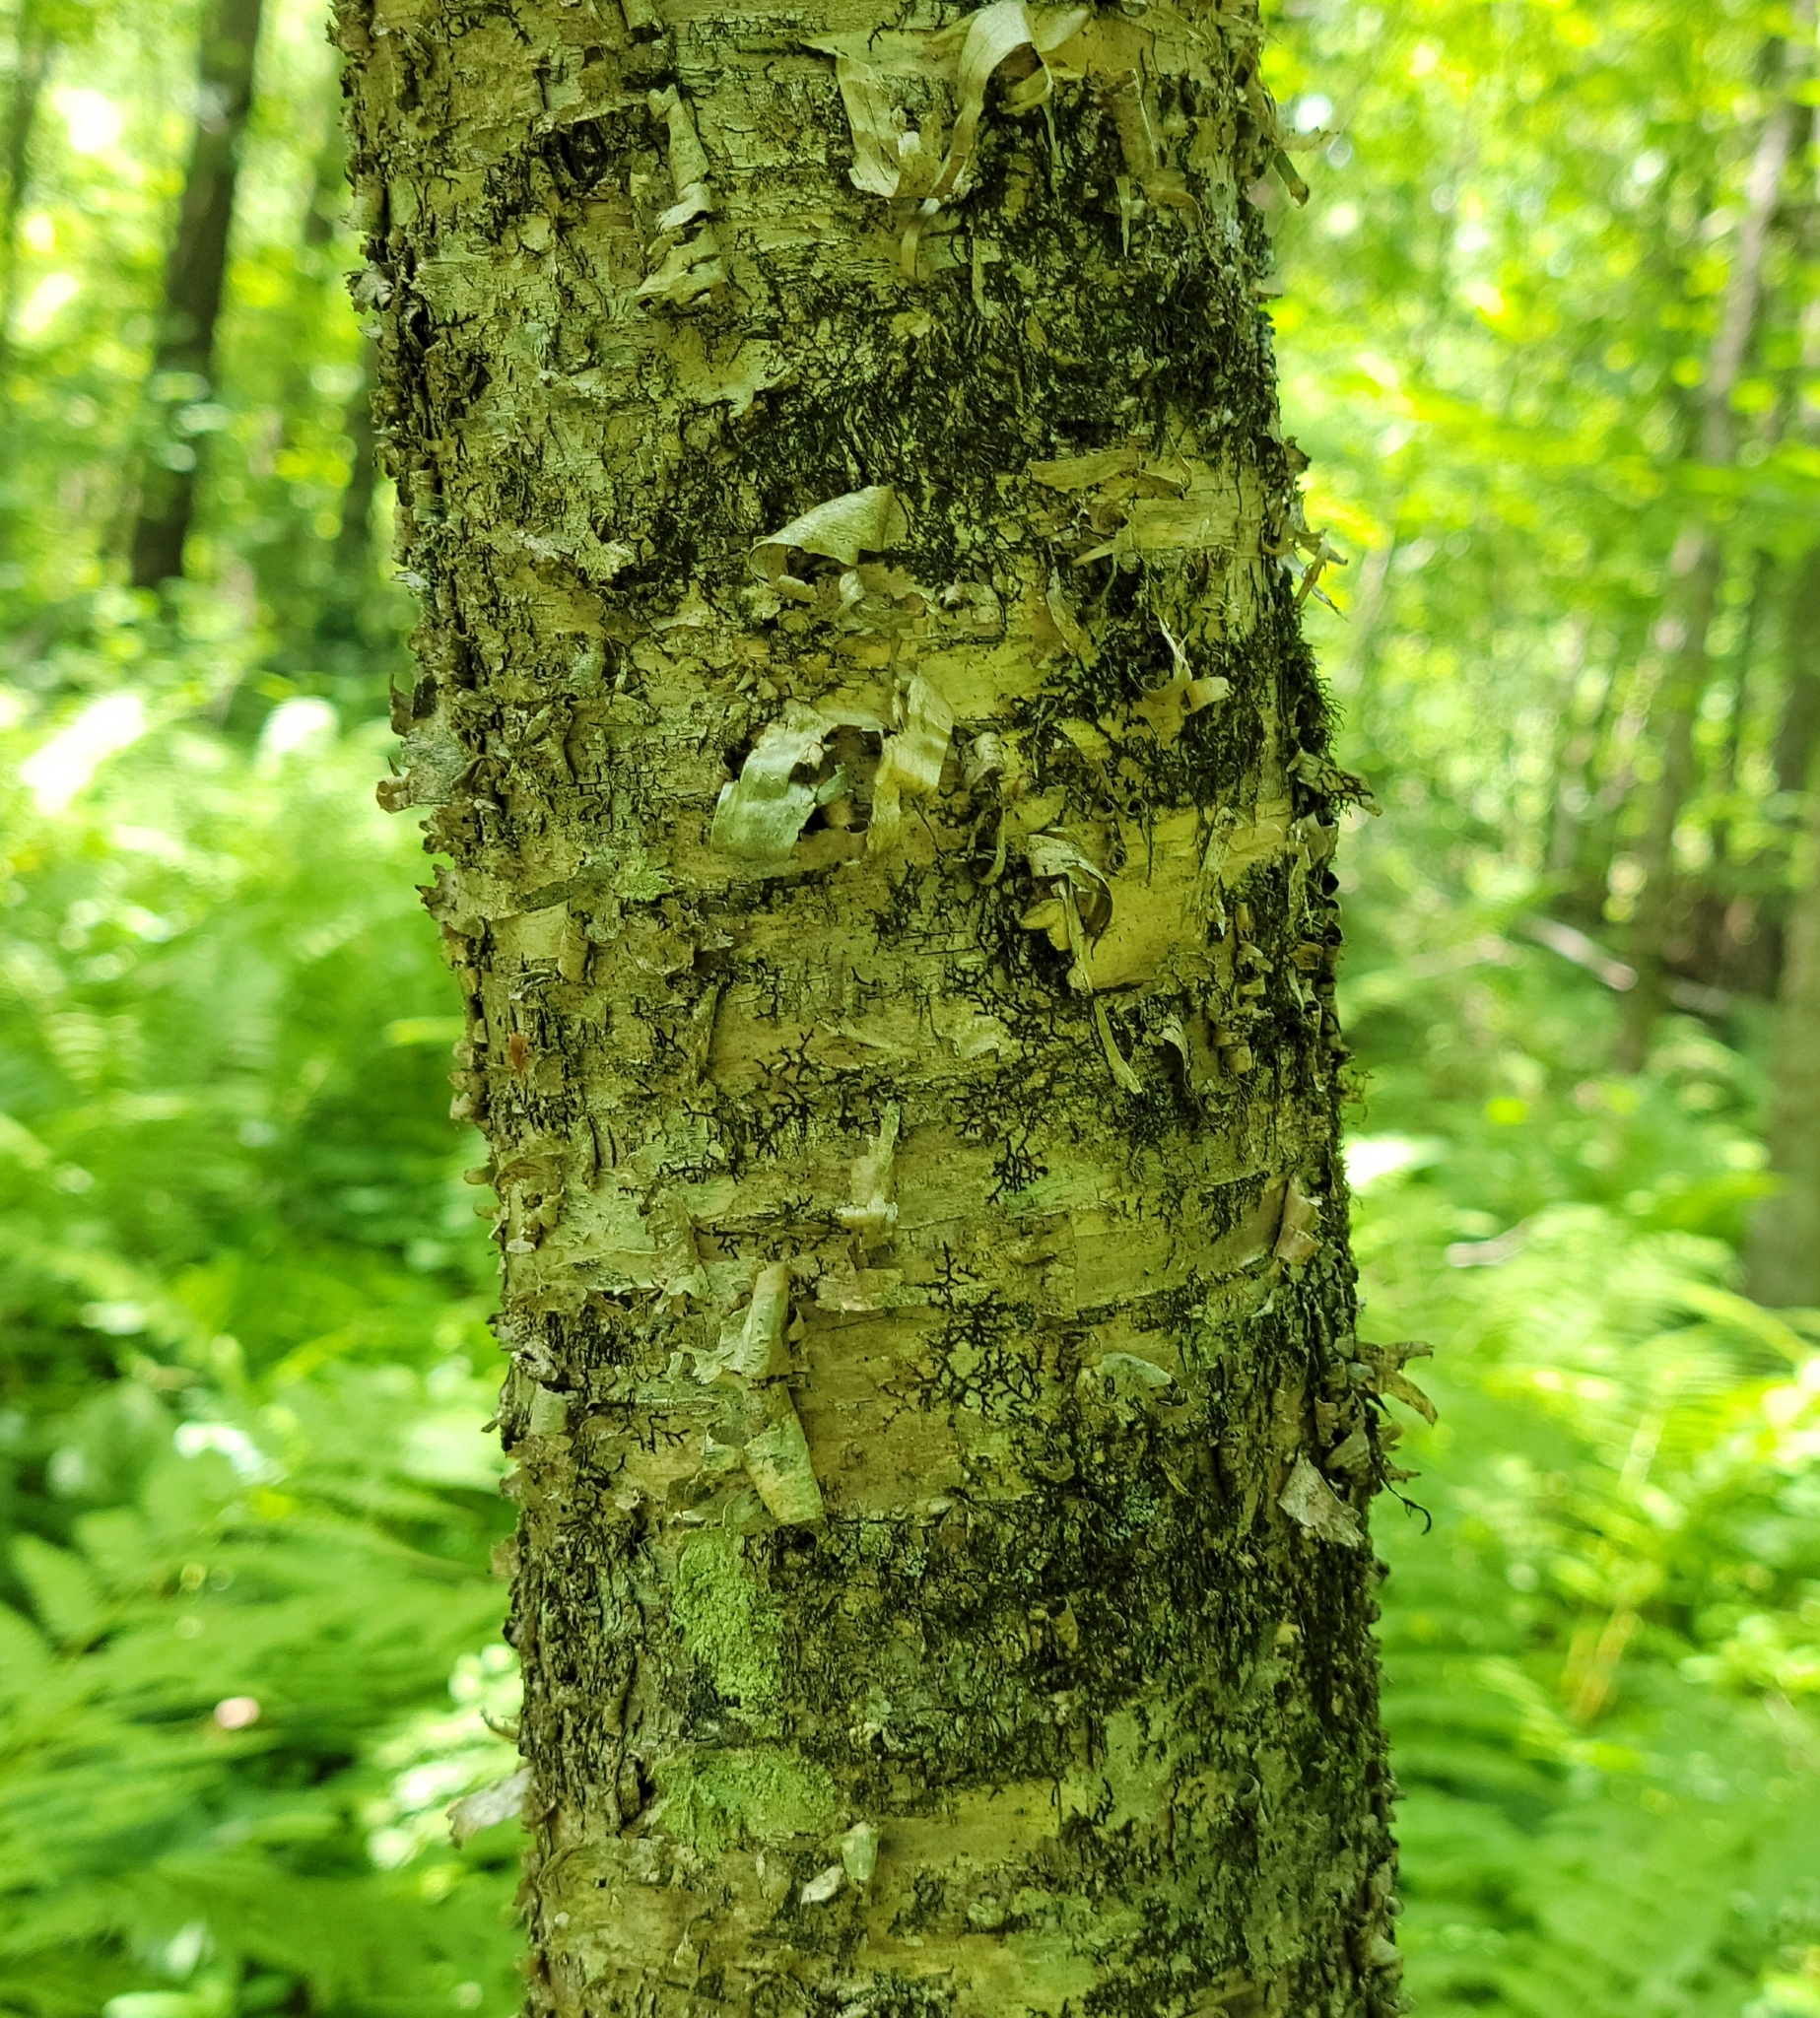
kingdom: Plantae
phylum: Tracheophyta
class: Magnoliopsida
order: Fagales
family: Betulaceae
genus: Betula
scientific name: Betula alleghaniensis
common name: Yellow birch
